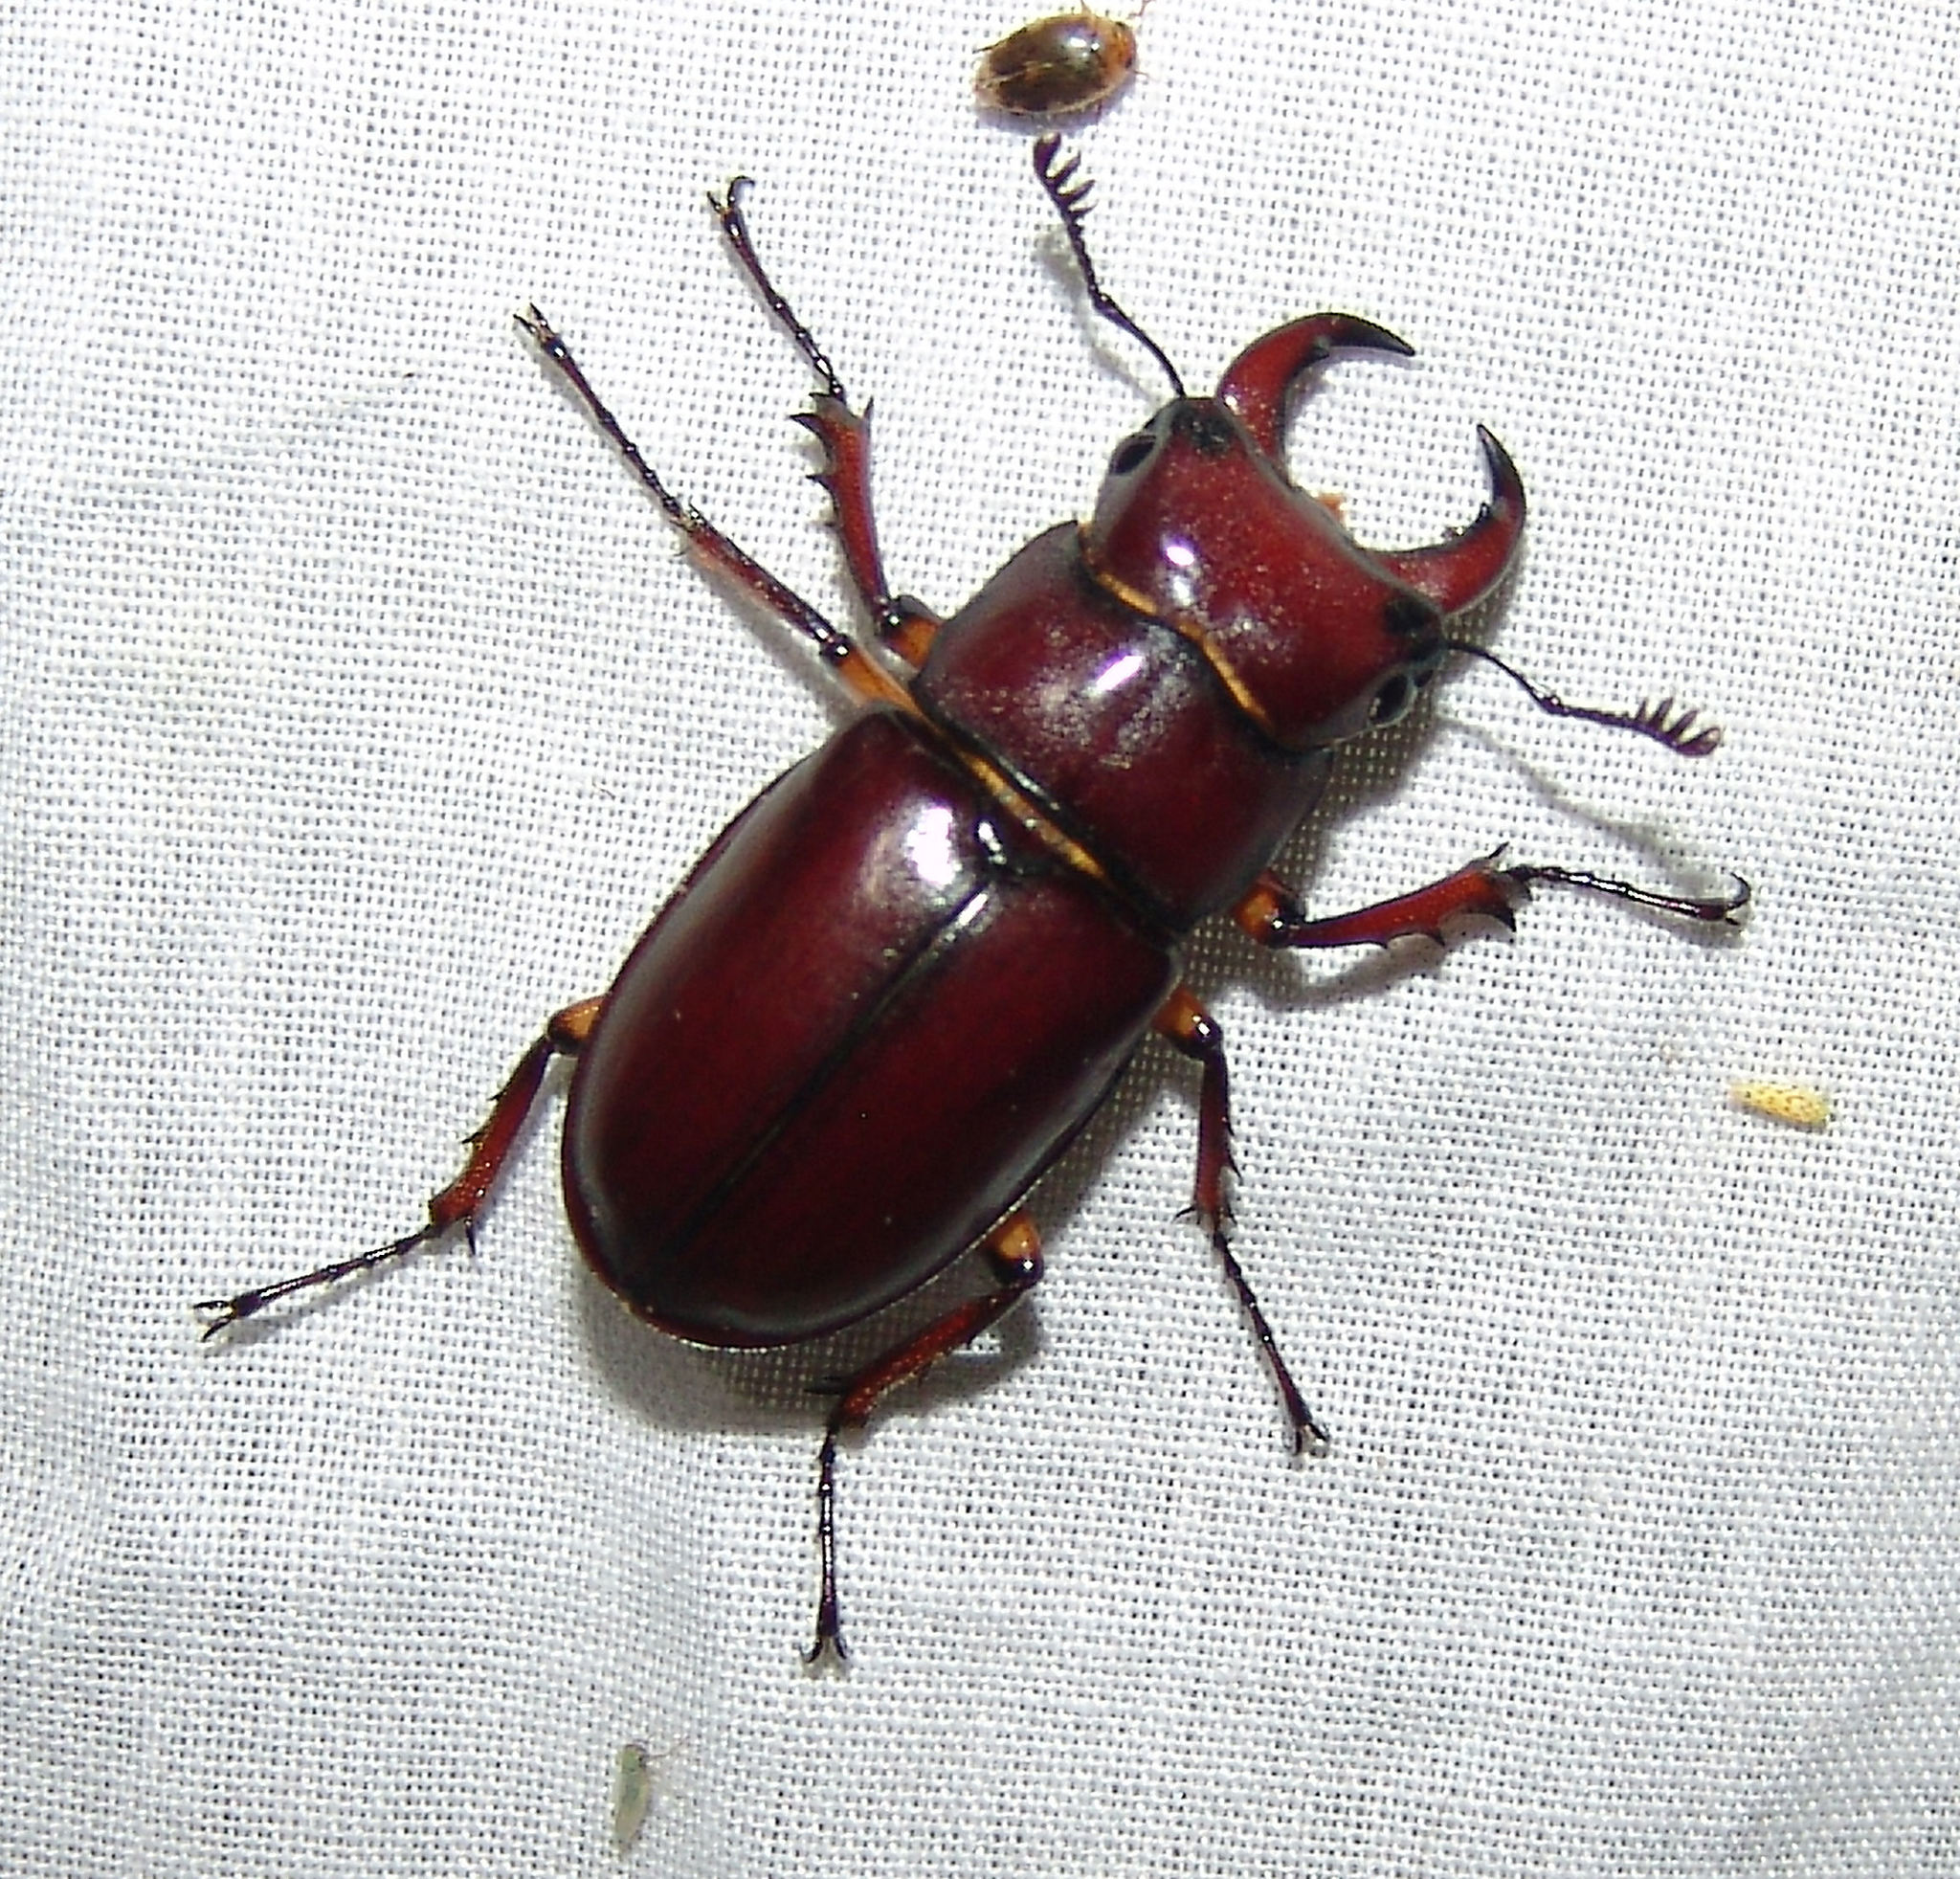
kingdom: Animalia
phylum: Arthropoda
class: Insecta
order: Coleoptera
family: Lucanidae
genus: Lucanus
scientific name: Lucanus capreolus
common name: Stag beetle
